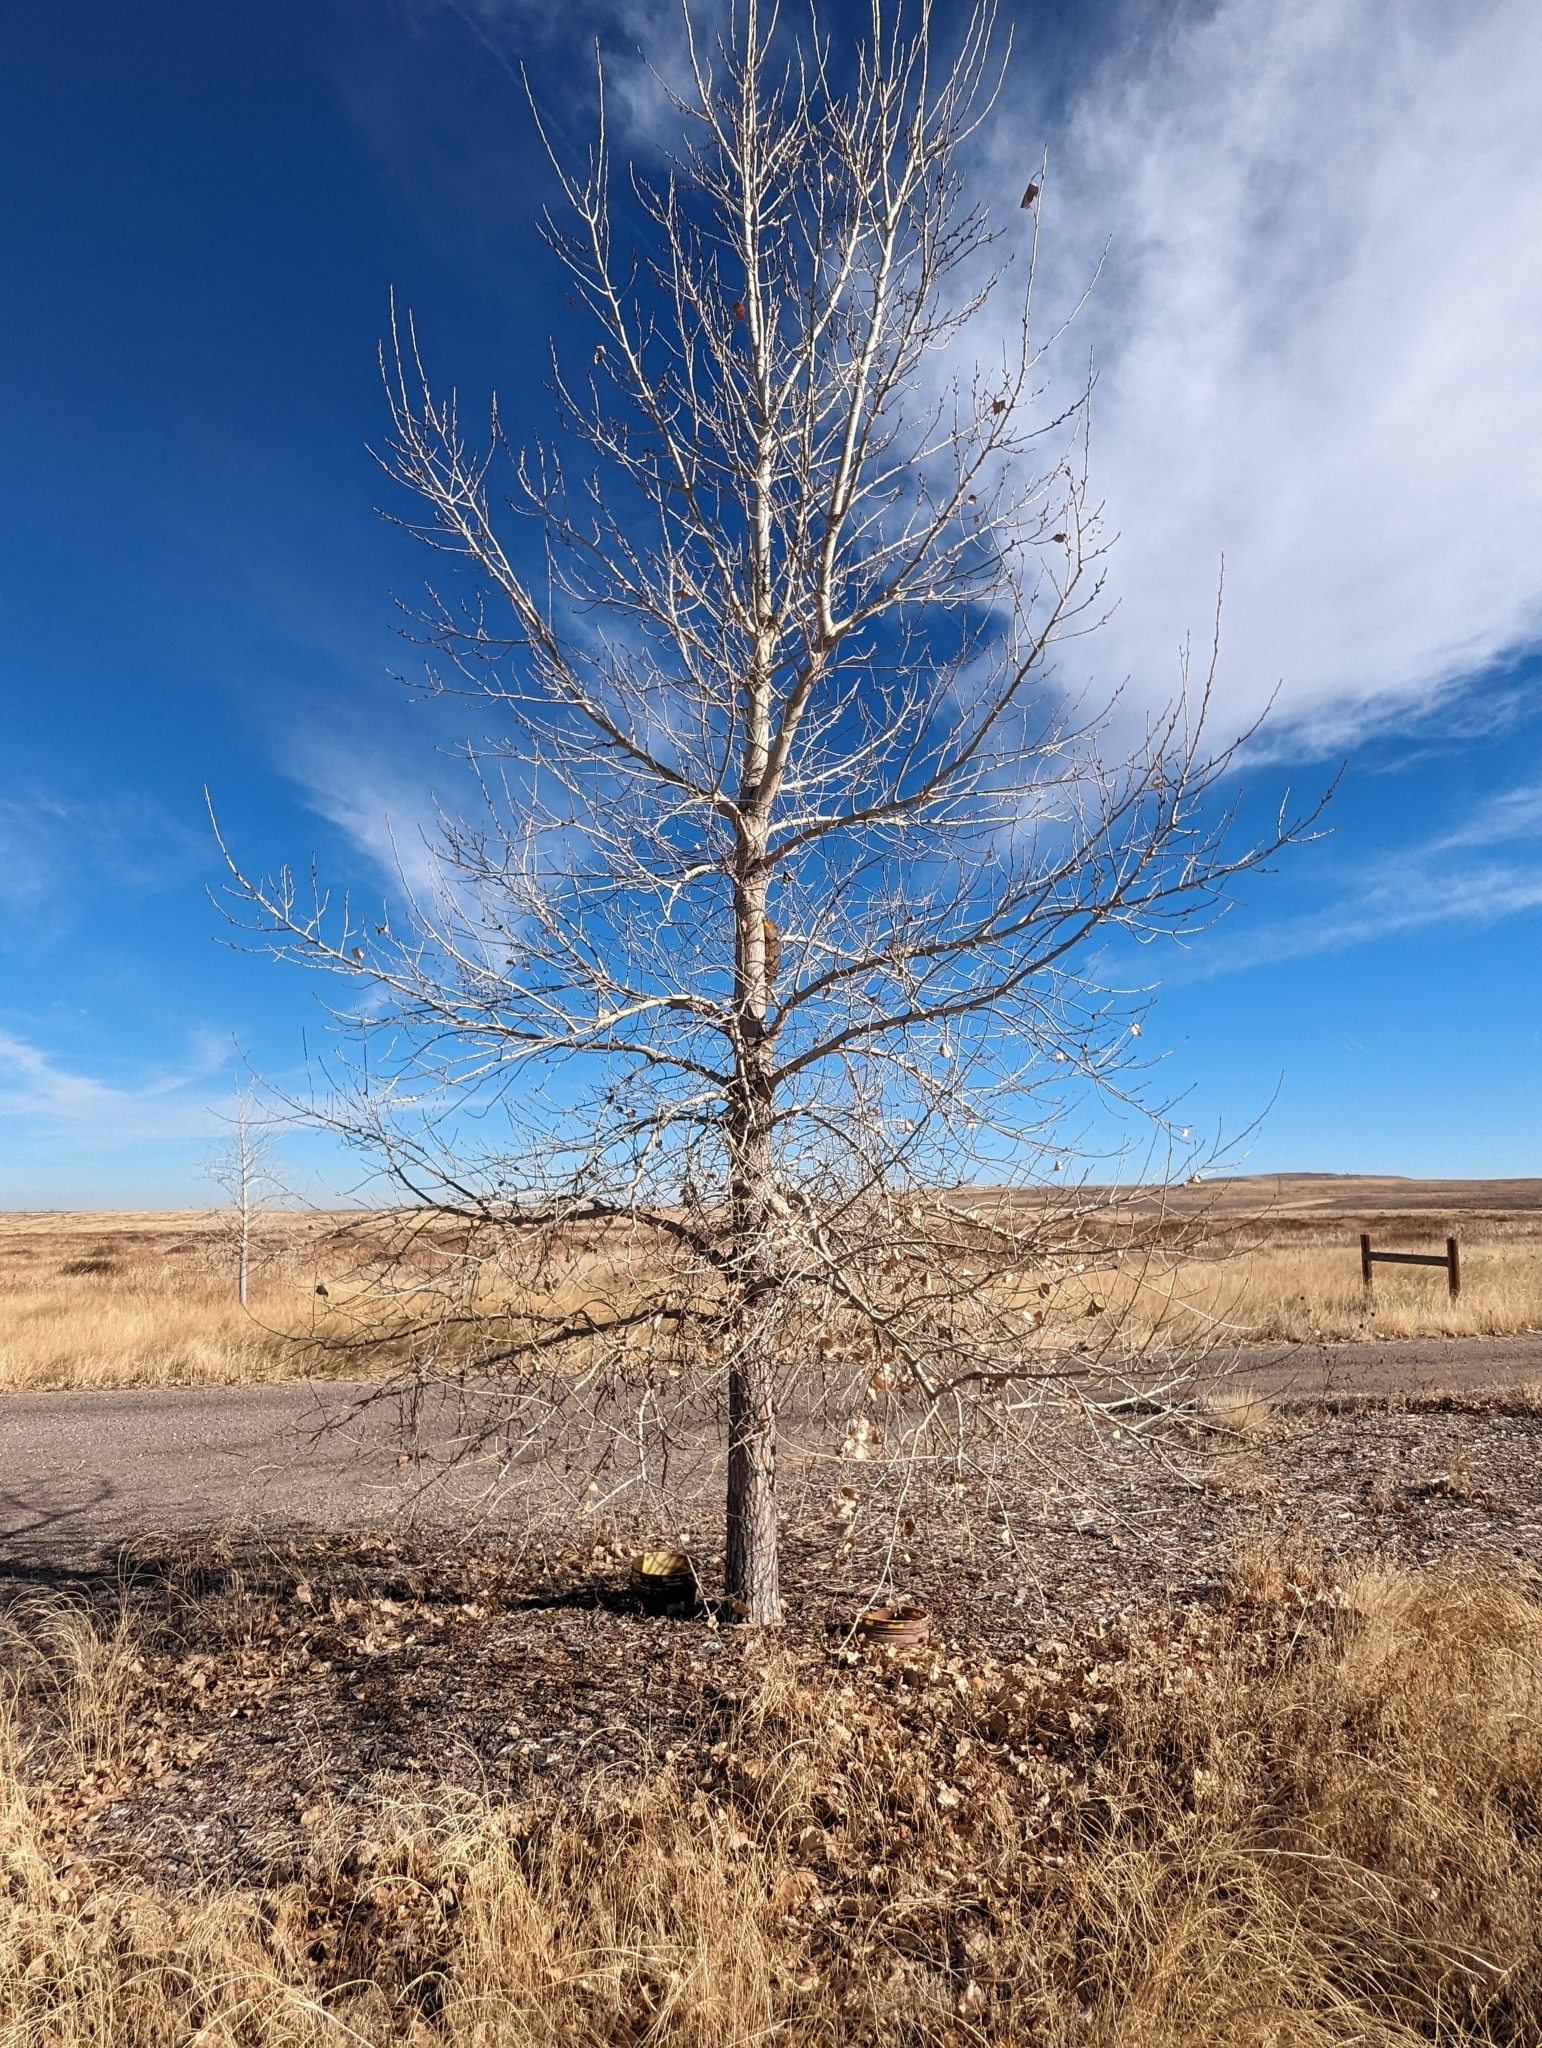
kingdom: Animalia
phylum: Chordata
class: Mammalia
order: Rodentia
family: Sciuridae
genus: Sciurus
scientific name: Sciurus niger
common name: Fox squirrel
